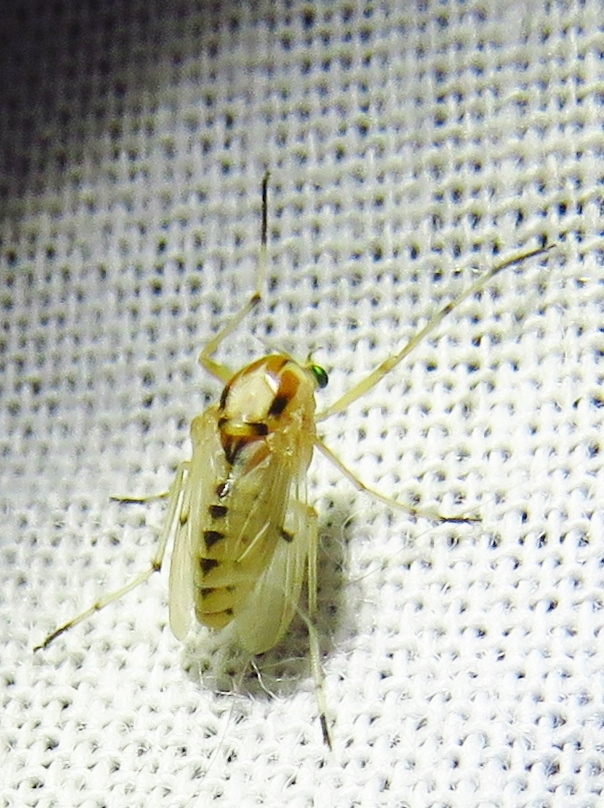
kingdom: Animalia
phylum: Arthropoda
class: Insecta
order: Diptera
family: Chironomidae
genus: Coelotanypus
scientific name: Coelotanypus concinnus
